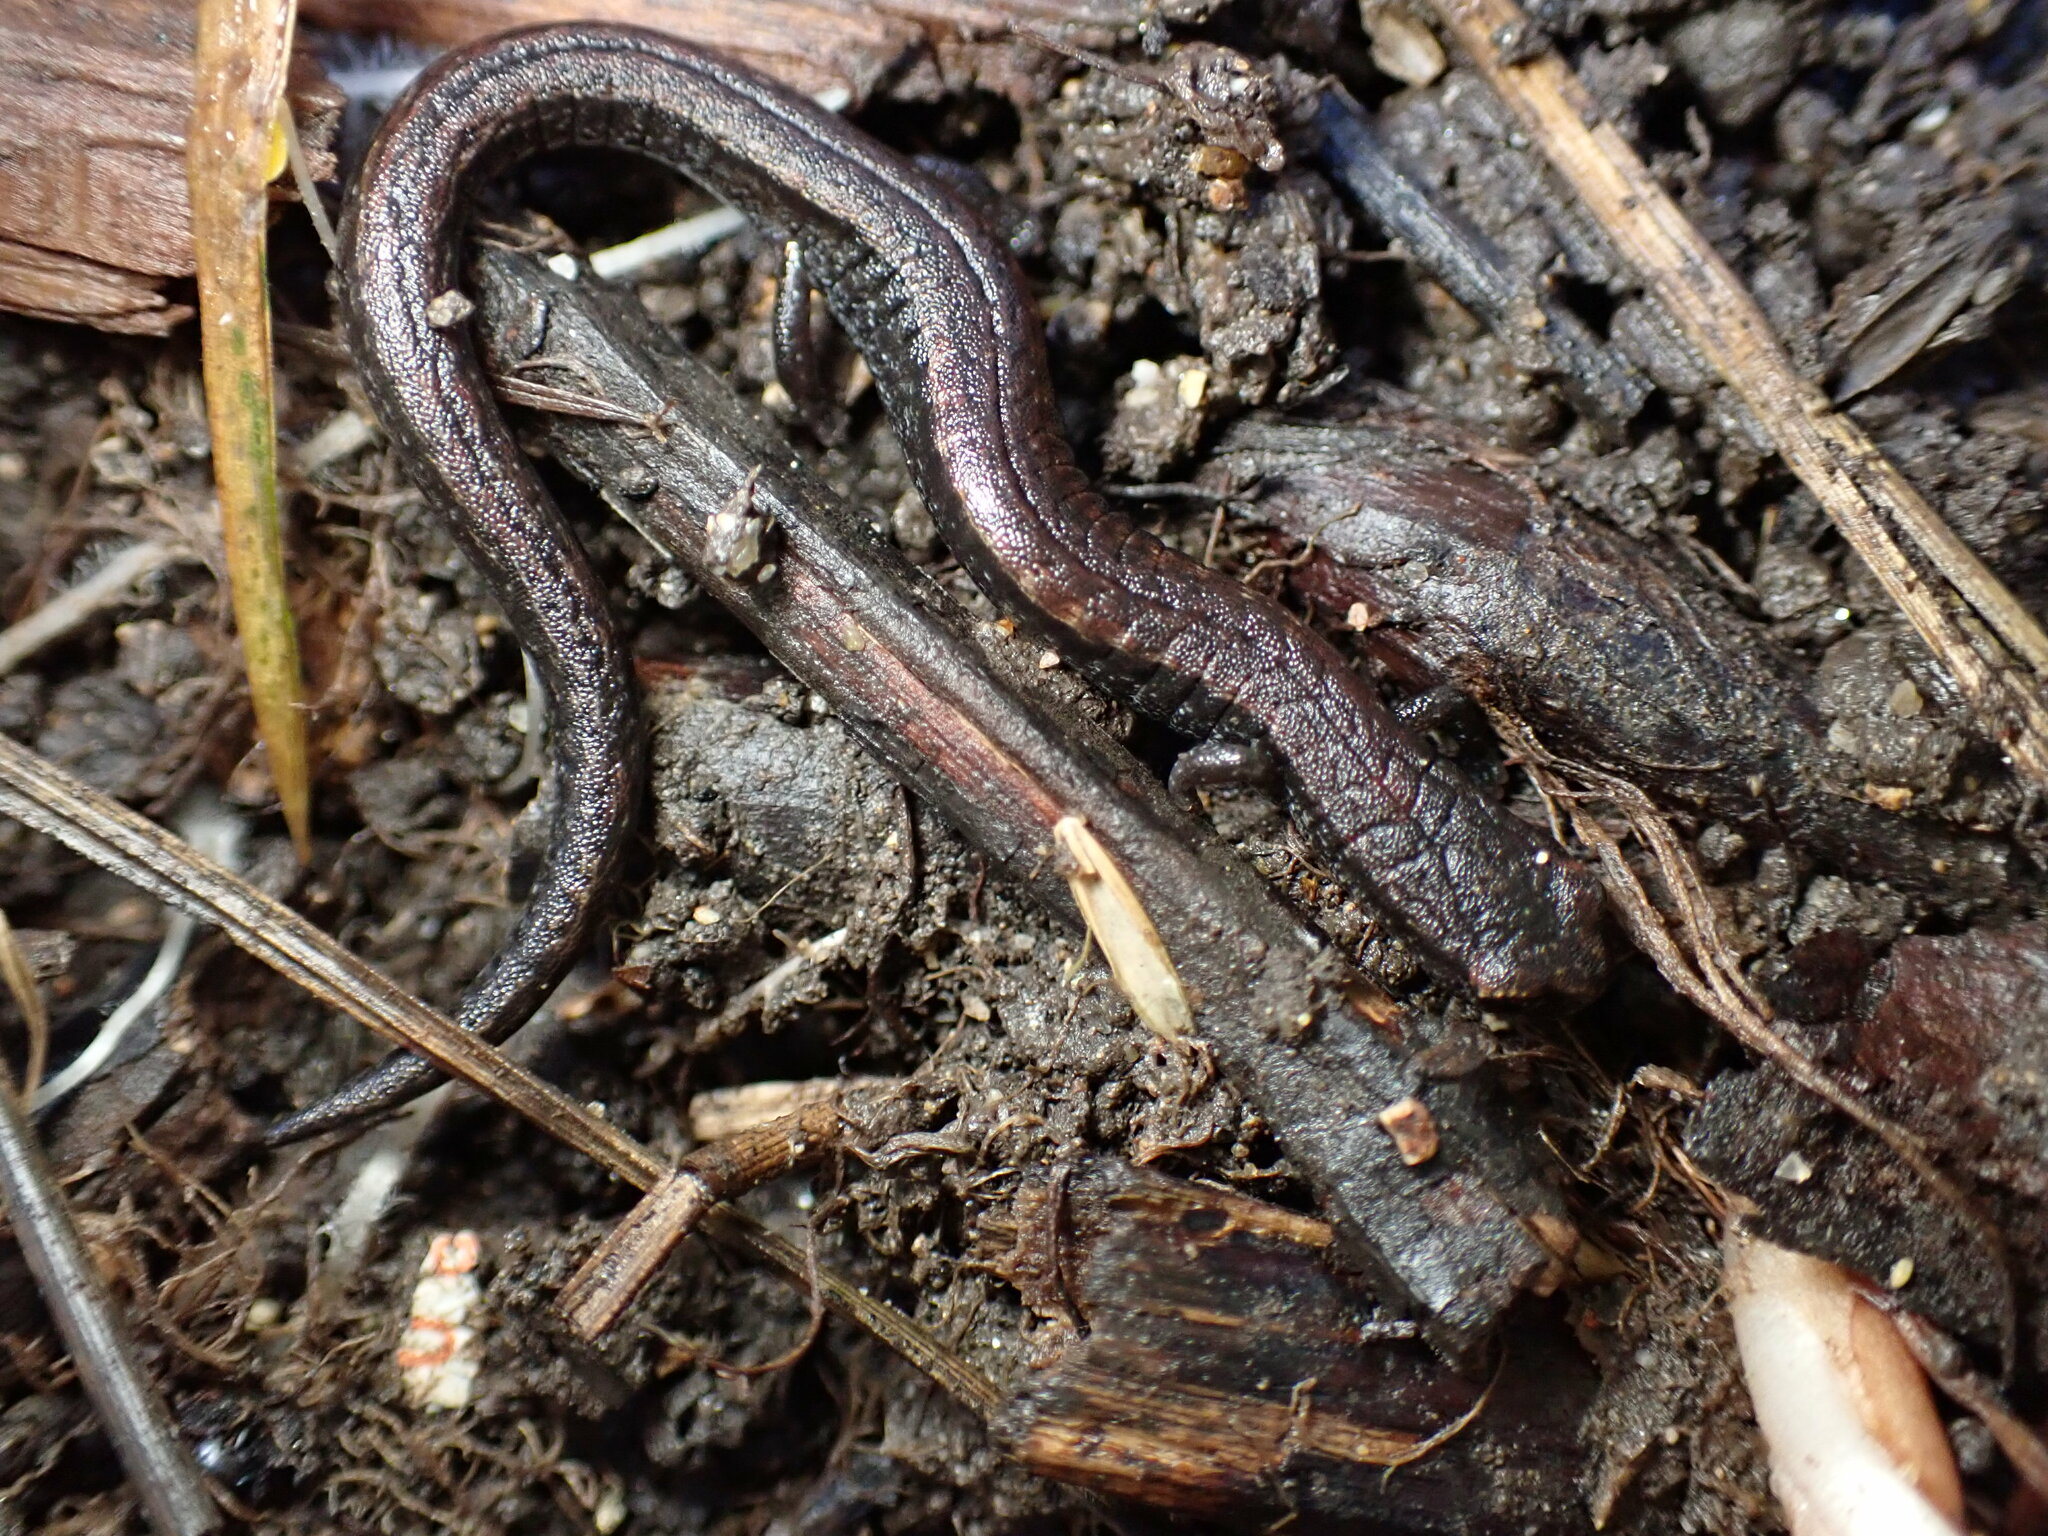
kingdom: Animalia
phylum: Chordata
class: Amphibia
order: Caudata
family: Plethodontidae
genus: Batrachoseps
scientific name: Batrachoseps attenuatus
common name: California slender salamander
